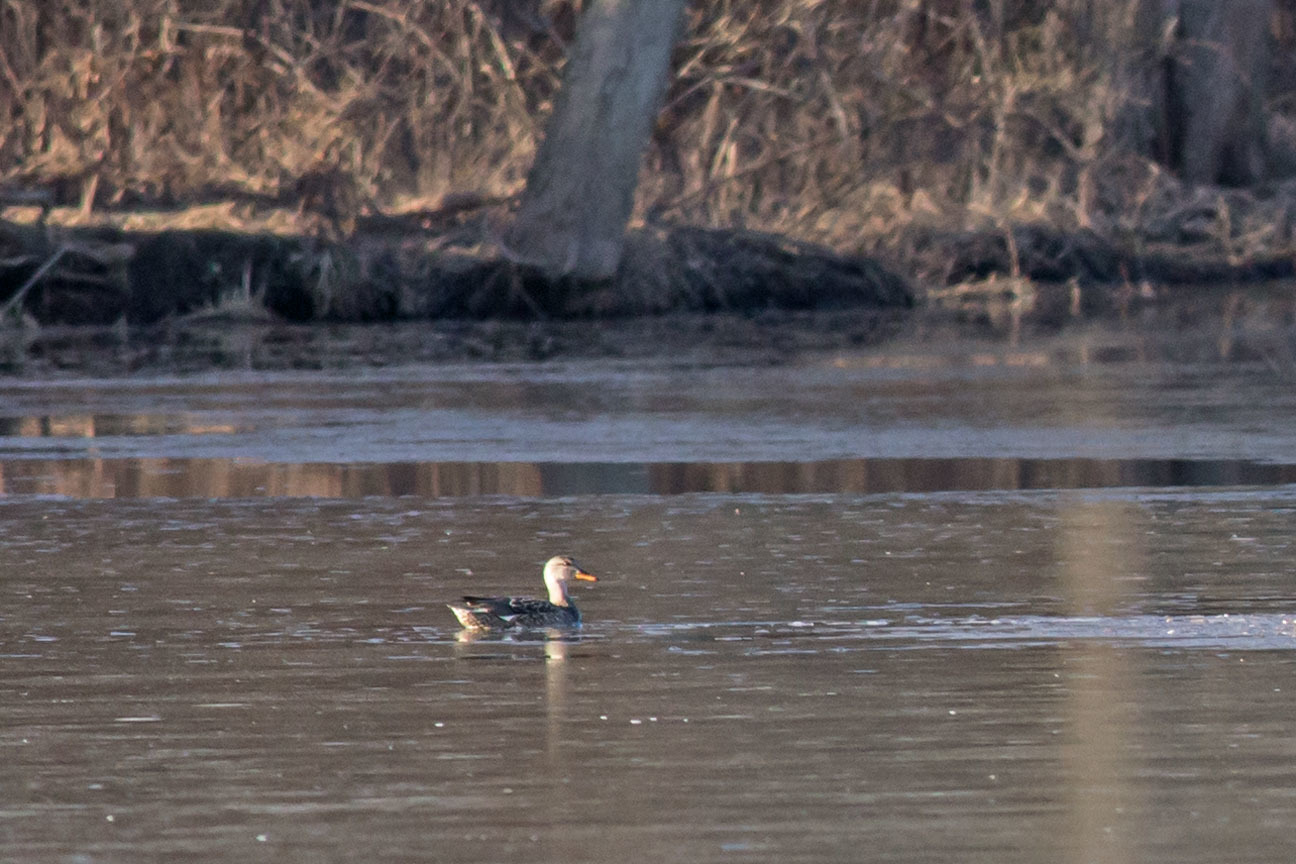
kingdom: Animalia
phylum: Chordata
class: Aves
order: Anseriformes
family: Anatidae
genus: Mareca
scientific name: Mareca strepera
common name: Gadwall
